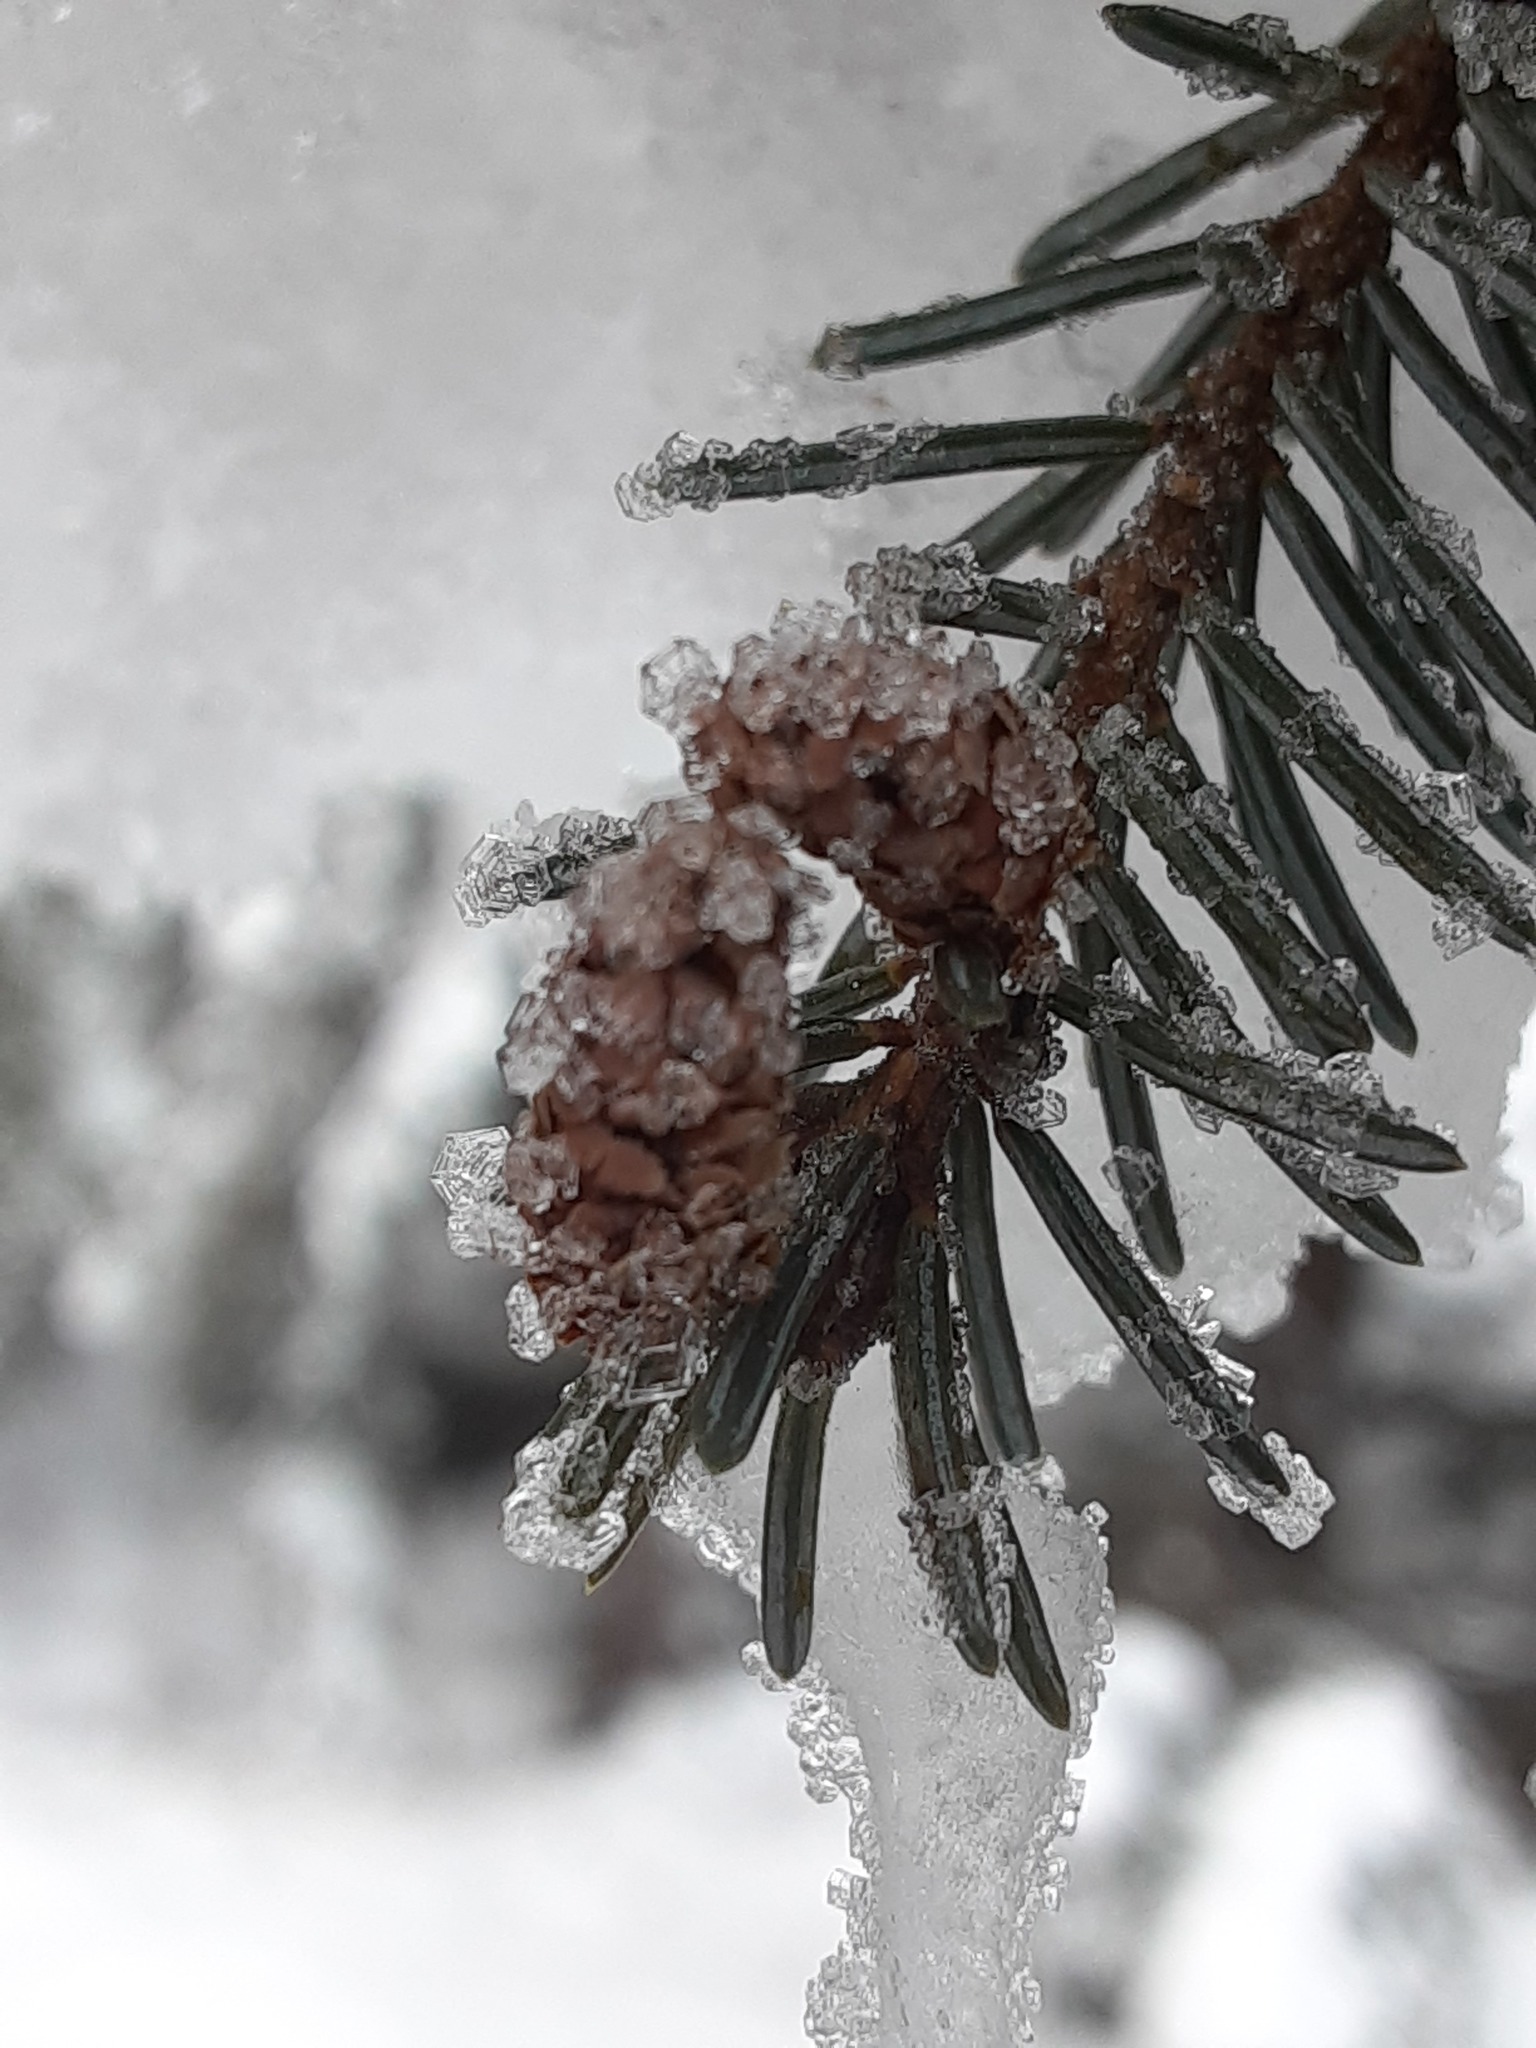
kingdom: Plantae
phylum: Tracheophyta
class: Pinopsida
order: Pinales
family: Pinaceae
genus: Picea
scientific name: Picea mariana
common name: Black spruce
